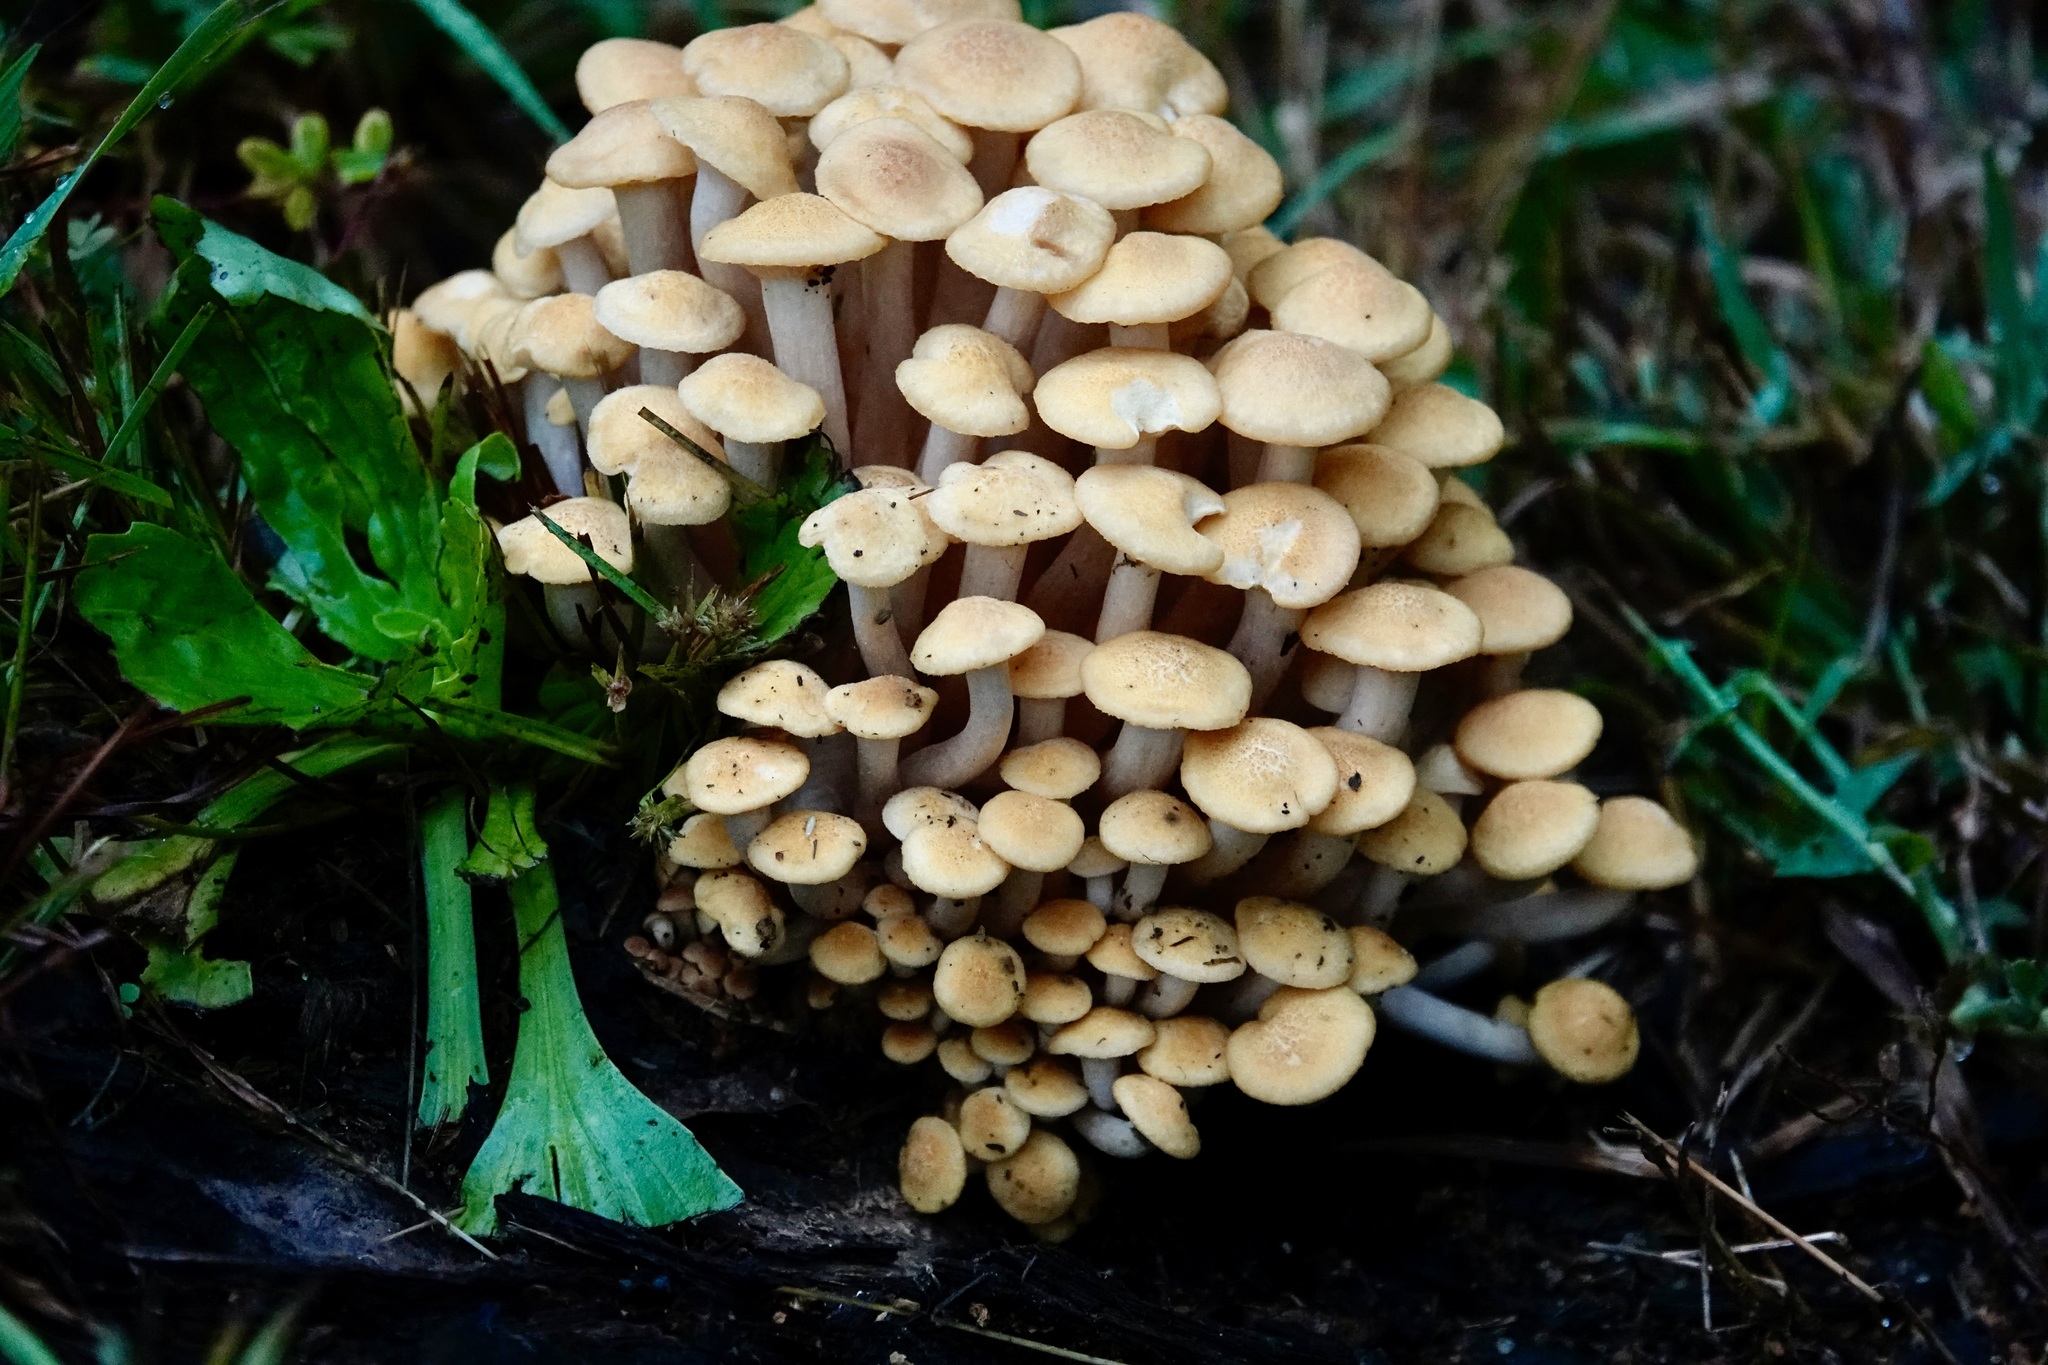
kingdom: Fungi
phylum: Basidiomycota
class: Agaricomycetes
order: Agaricales
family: Physalacriaceae
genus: Desarmillaria
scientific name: Desarmillaria caespitosa
